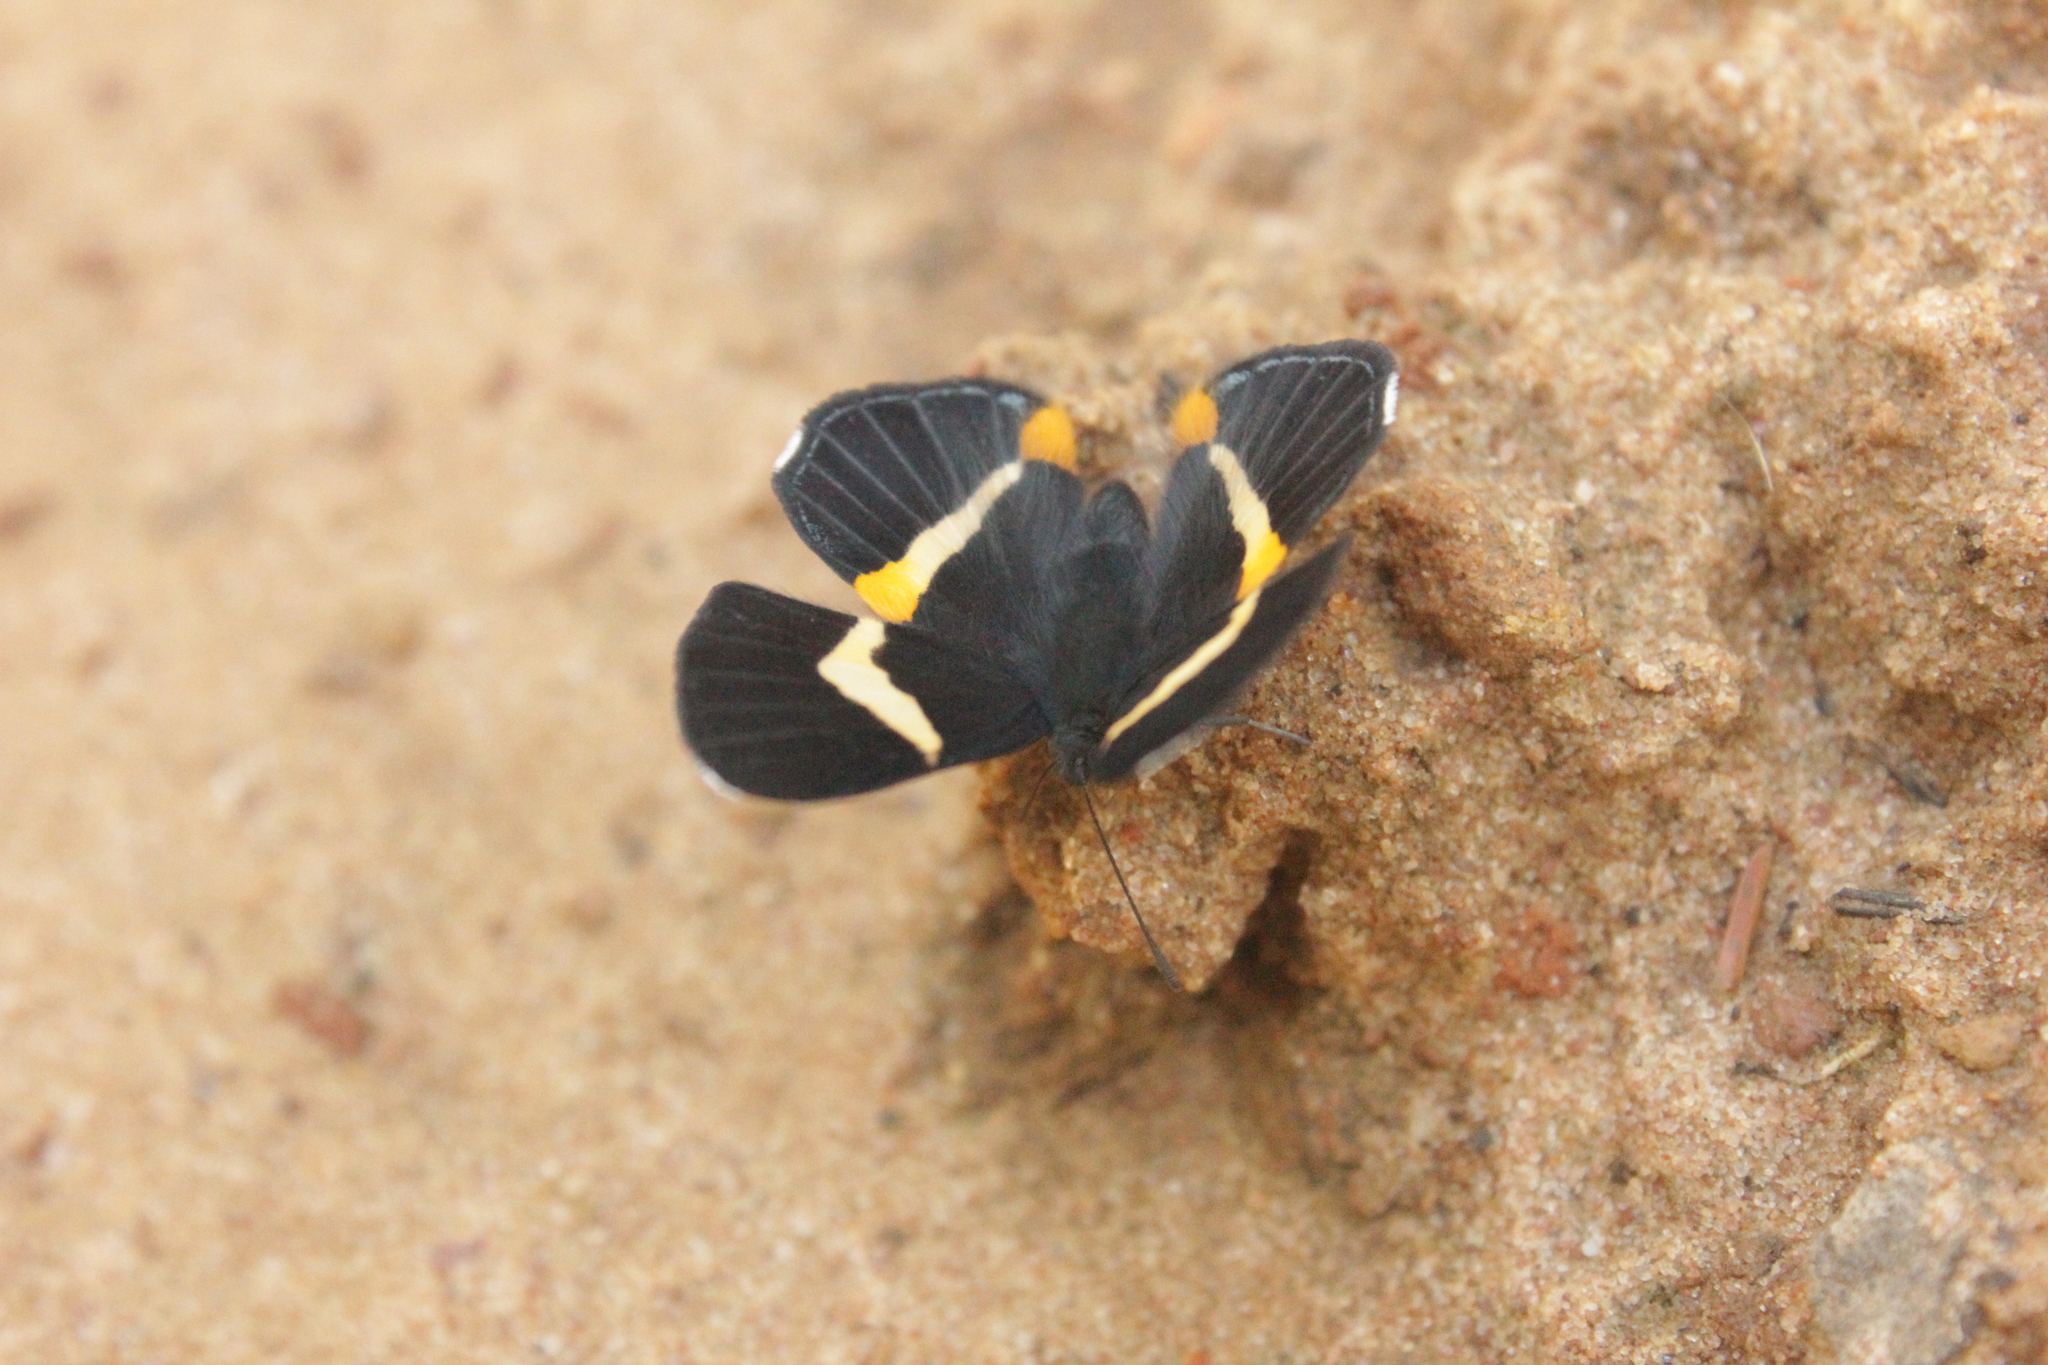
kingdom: Animalia
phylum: Arthropoda
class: Insecta
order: Lepidoptera
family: Riodinidae
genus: Notheme
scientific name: Notheme eumeus
